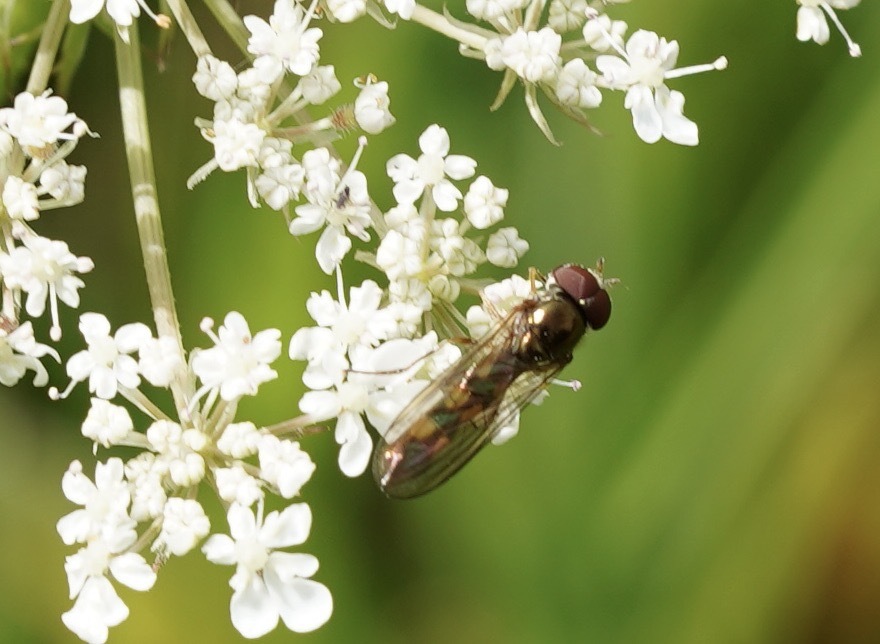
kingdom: Animalia
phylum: Arthropoda
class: Insecta
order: Diptera
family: Syrphidae
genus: Melanostoma
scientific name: Melanostoma scalare
